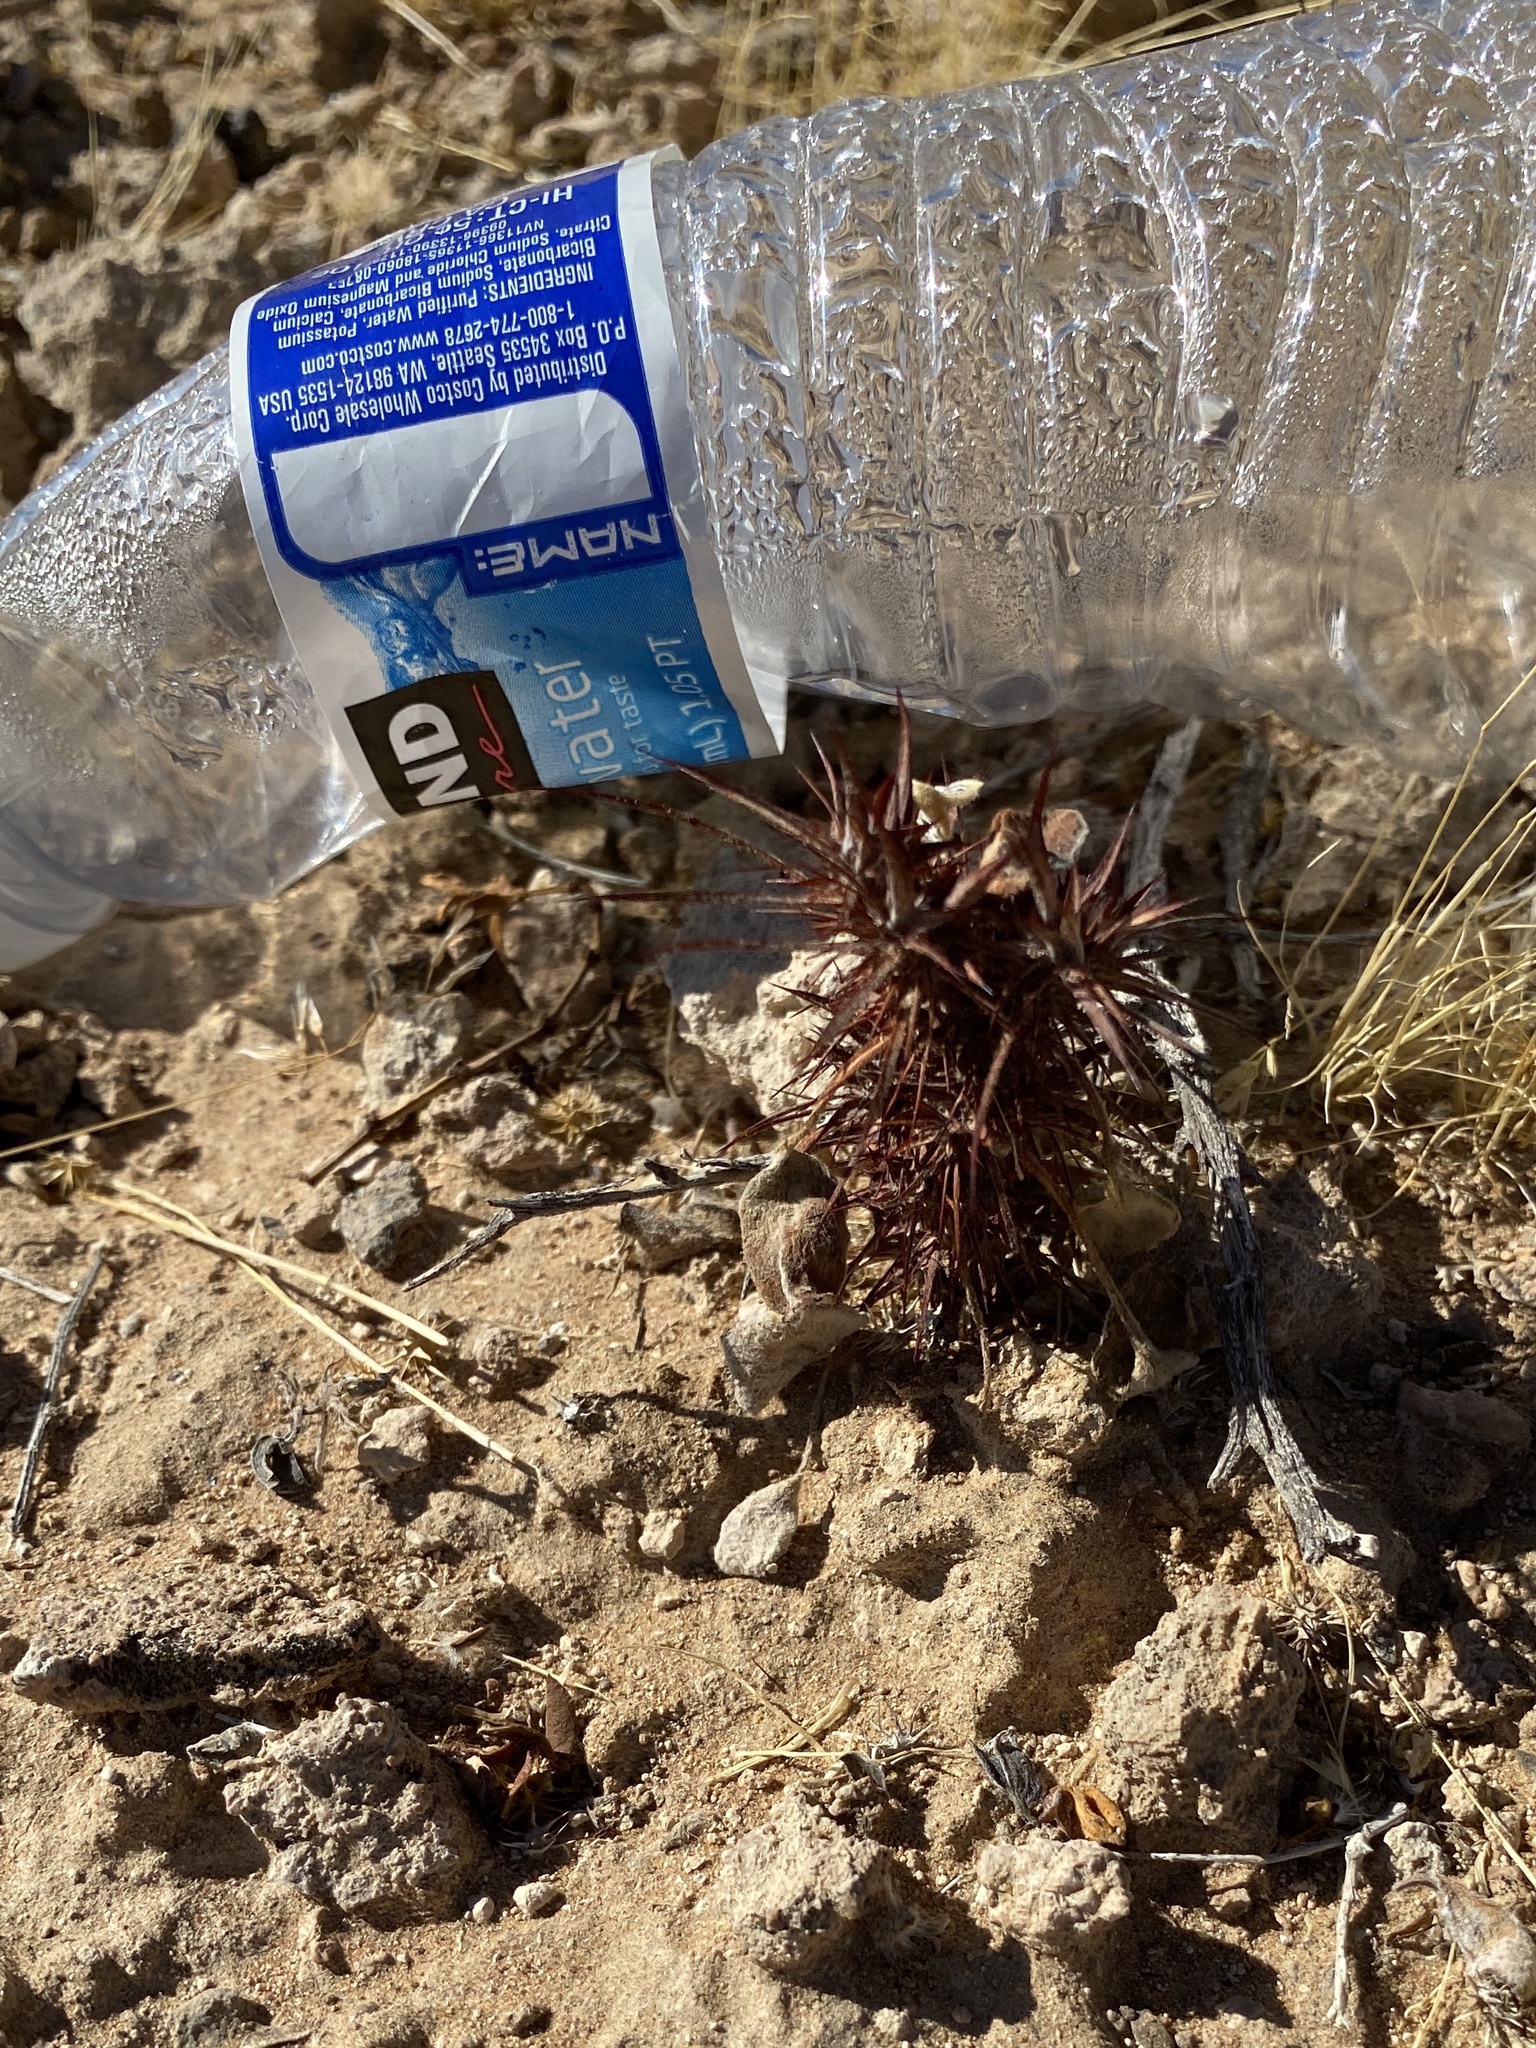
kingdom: Plantae
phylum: Tracheophyta
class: Magnoliopsida
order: Caryophyllales
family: Polygonaceae
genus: Chorizanthe
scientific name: Chorizanthe rigida
